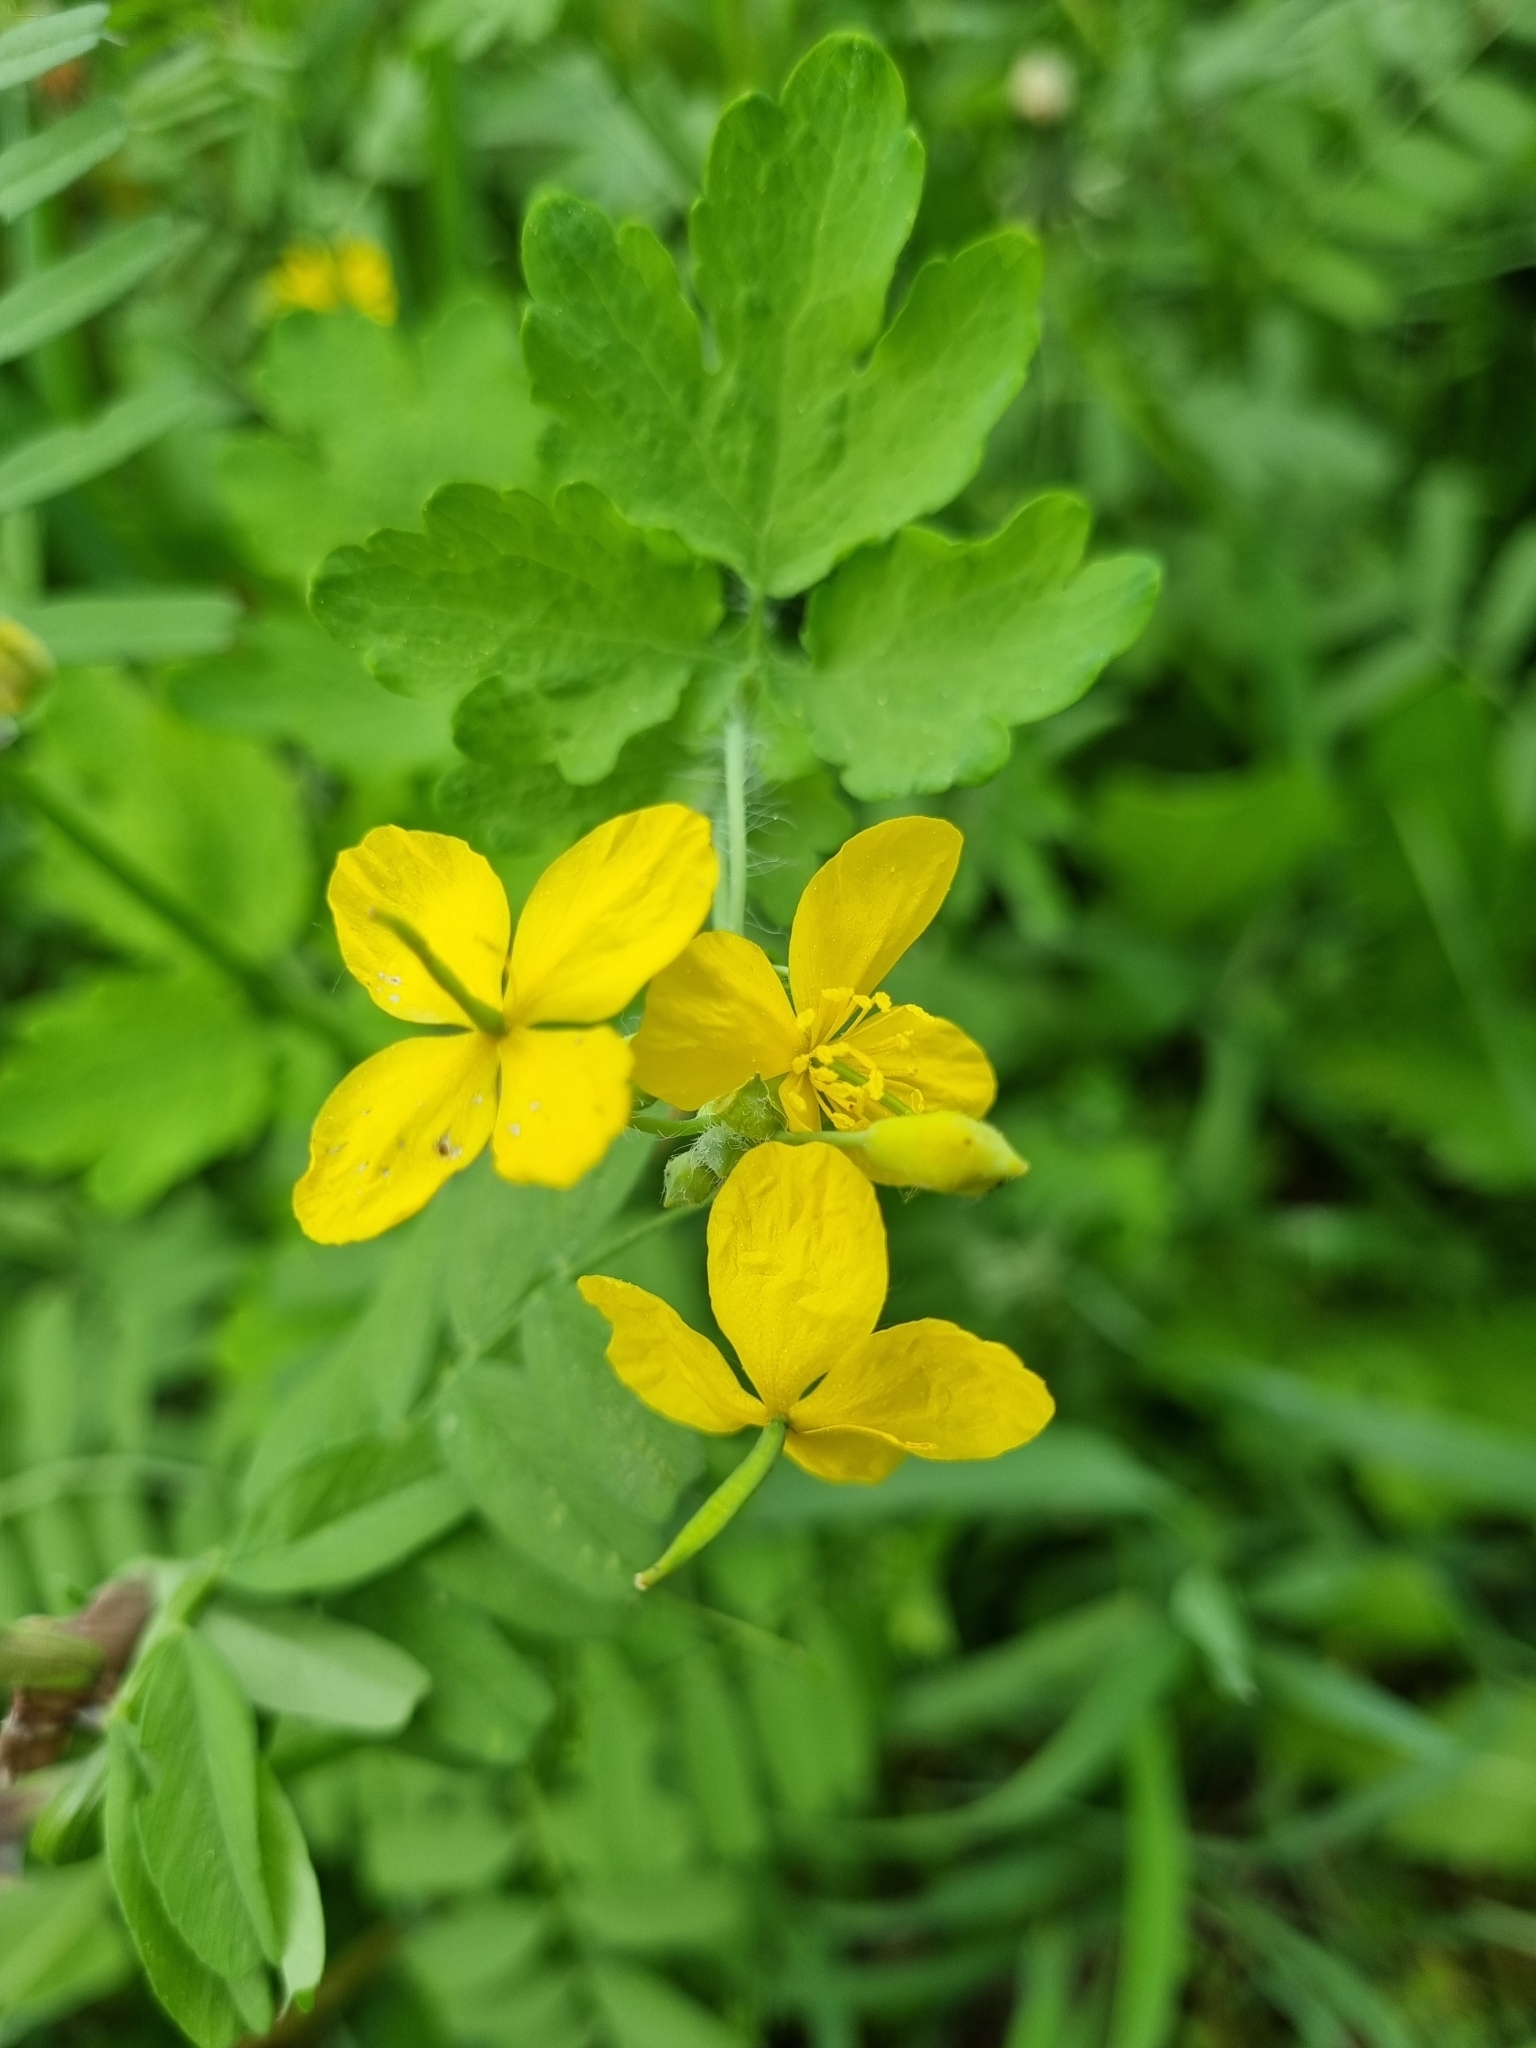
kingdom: Plantae
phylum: Tracheophyta
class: Magnoliopsida
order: Ranunculales
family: Papaveraceae
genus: Chelidonium
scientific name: Chelidonium majus
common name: Greater celandine
